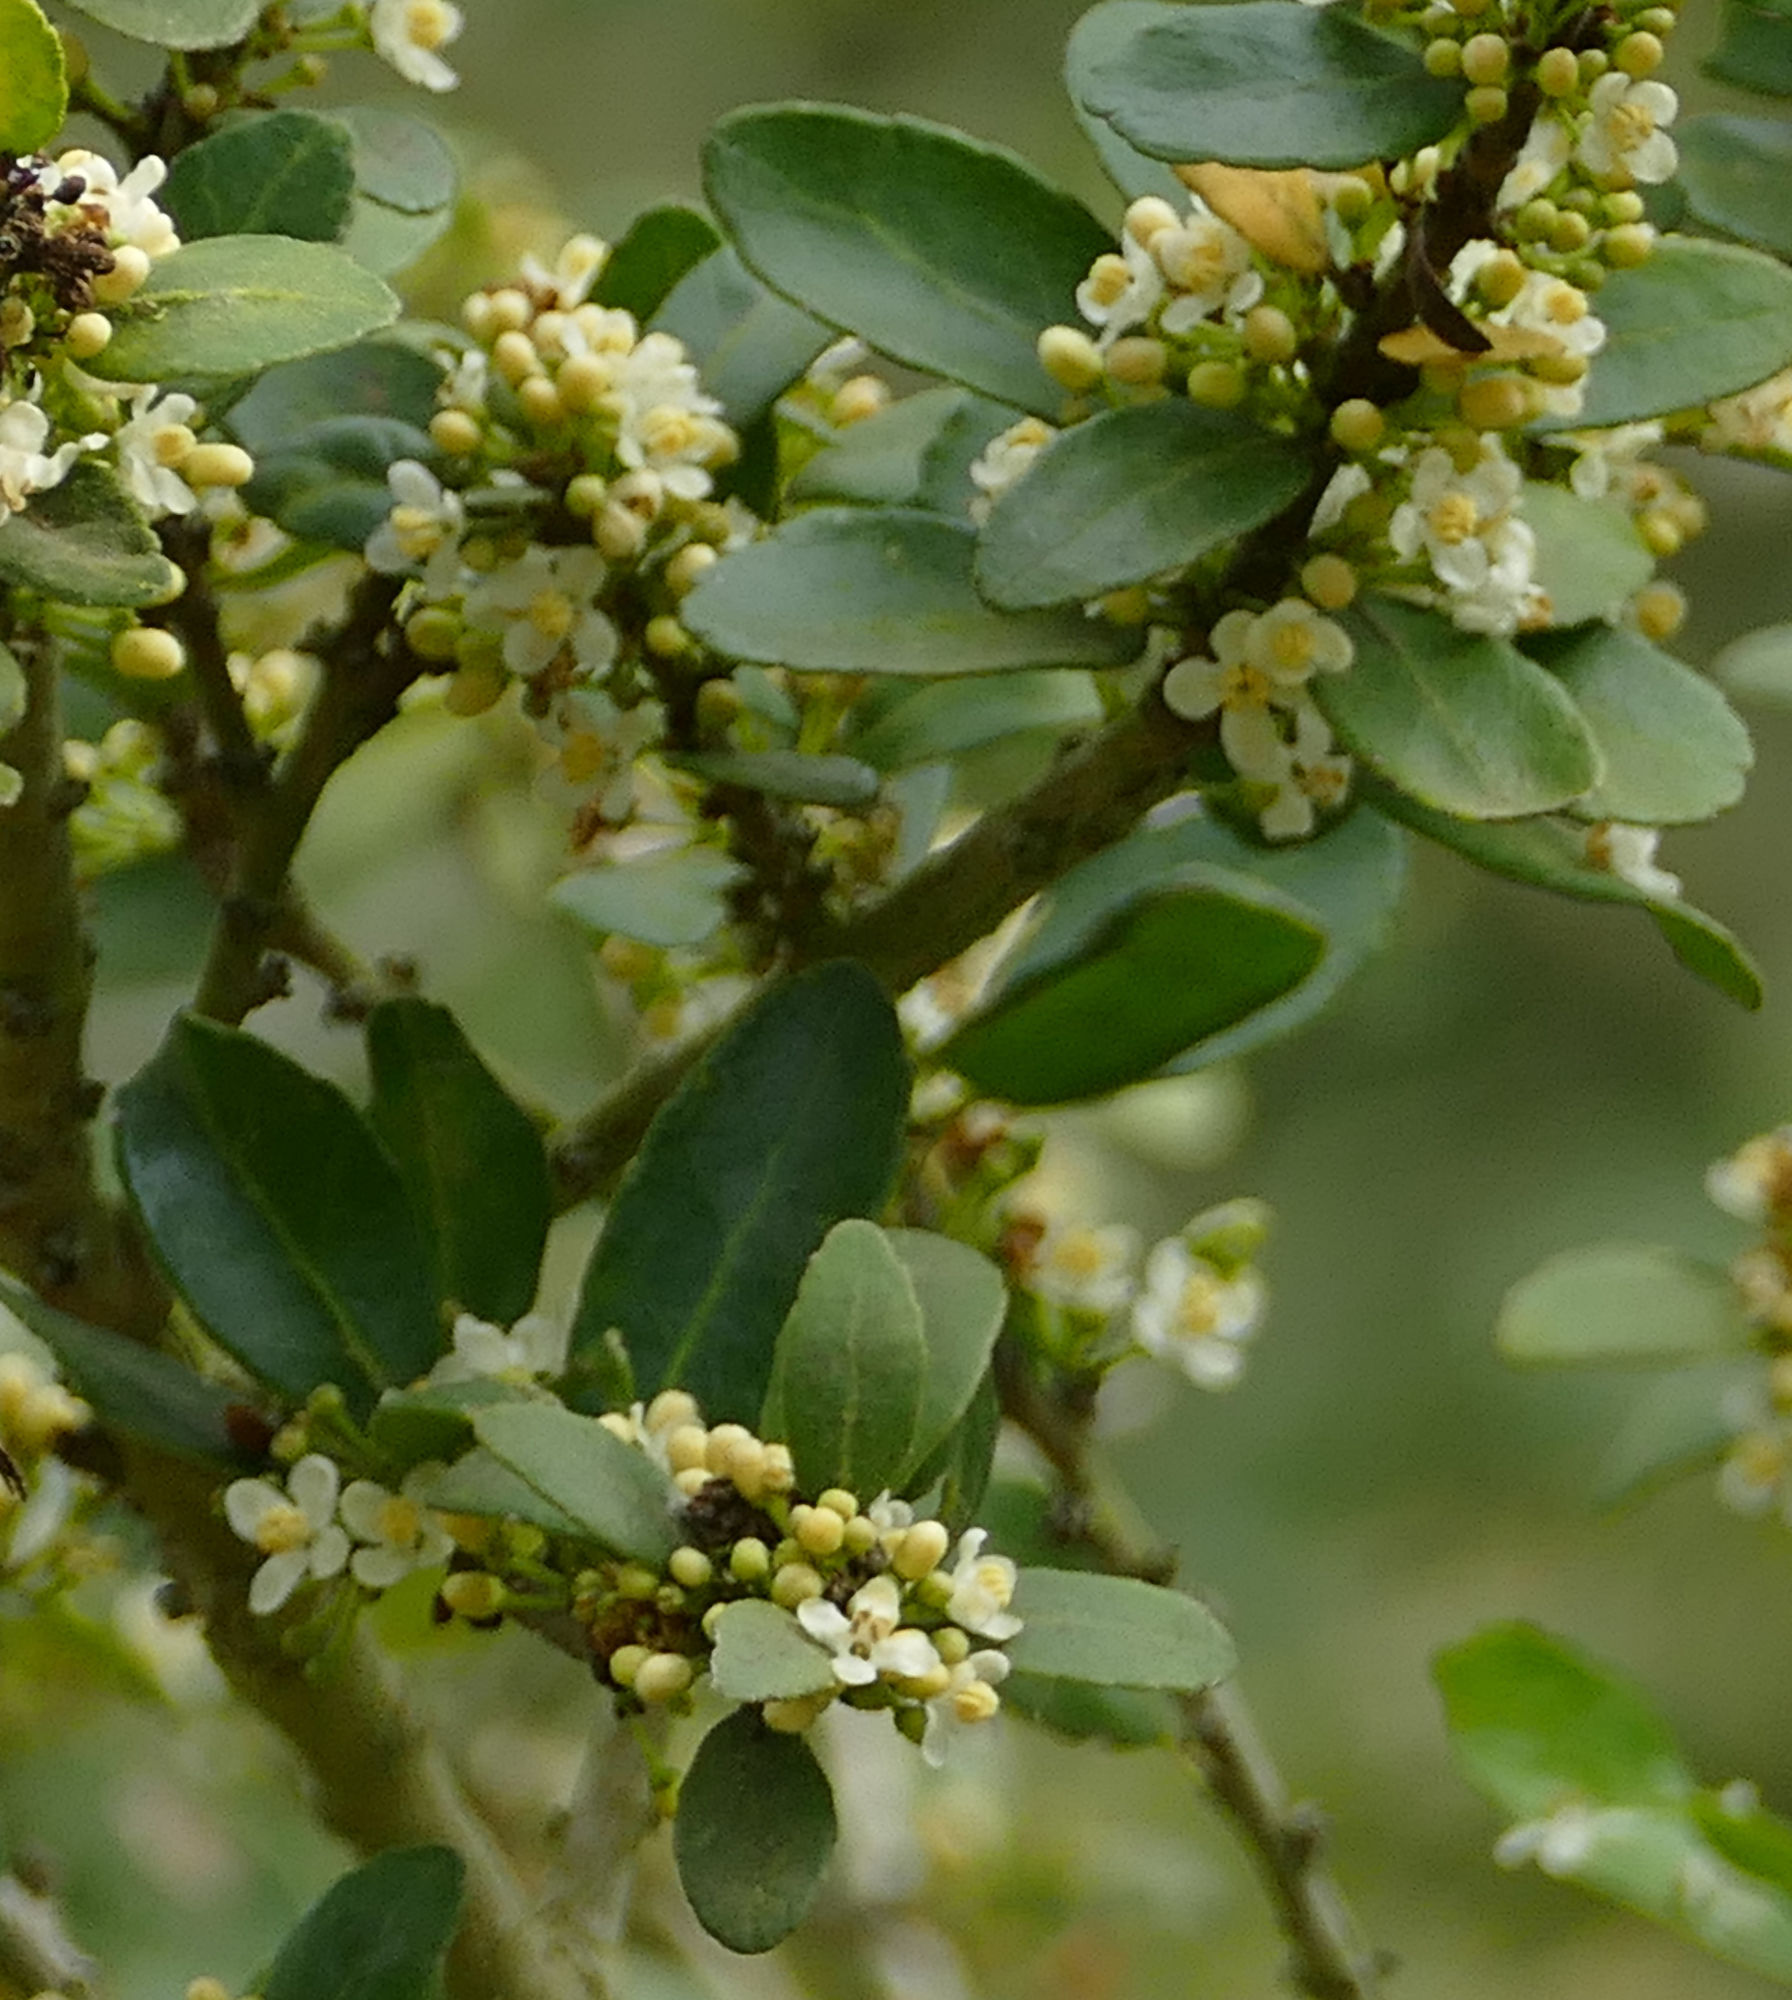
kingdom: Plantae
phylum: Tracheophyta
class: Magnoliopsida
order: Aquifoliales
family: Aquifoliaceae
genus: Ilex
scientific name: Ilex vomitoria
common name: Yaupon holly
